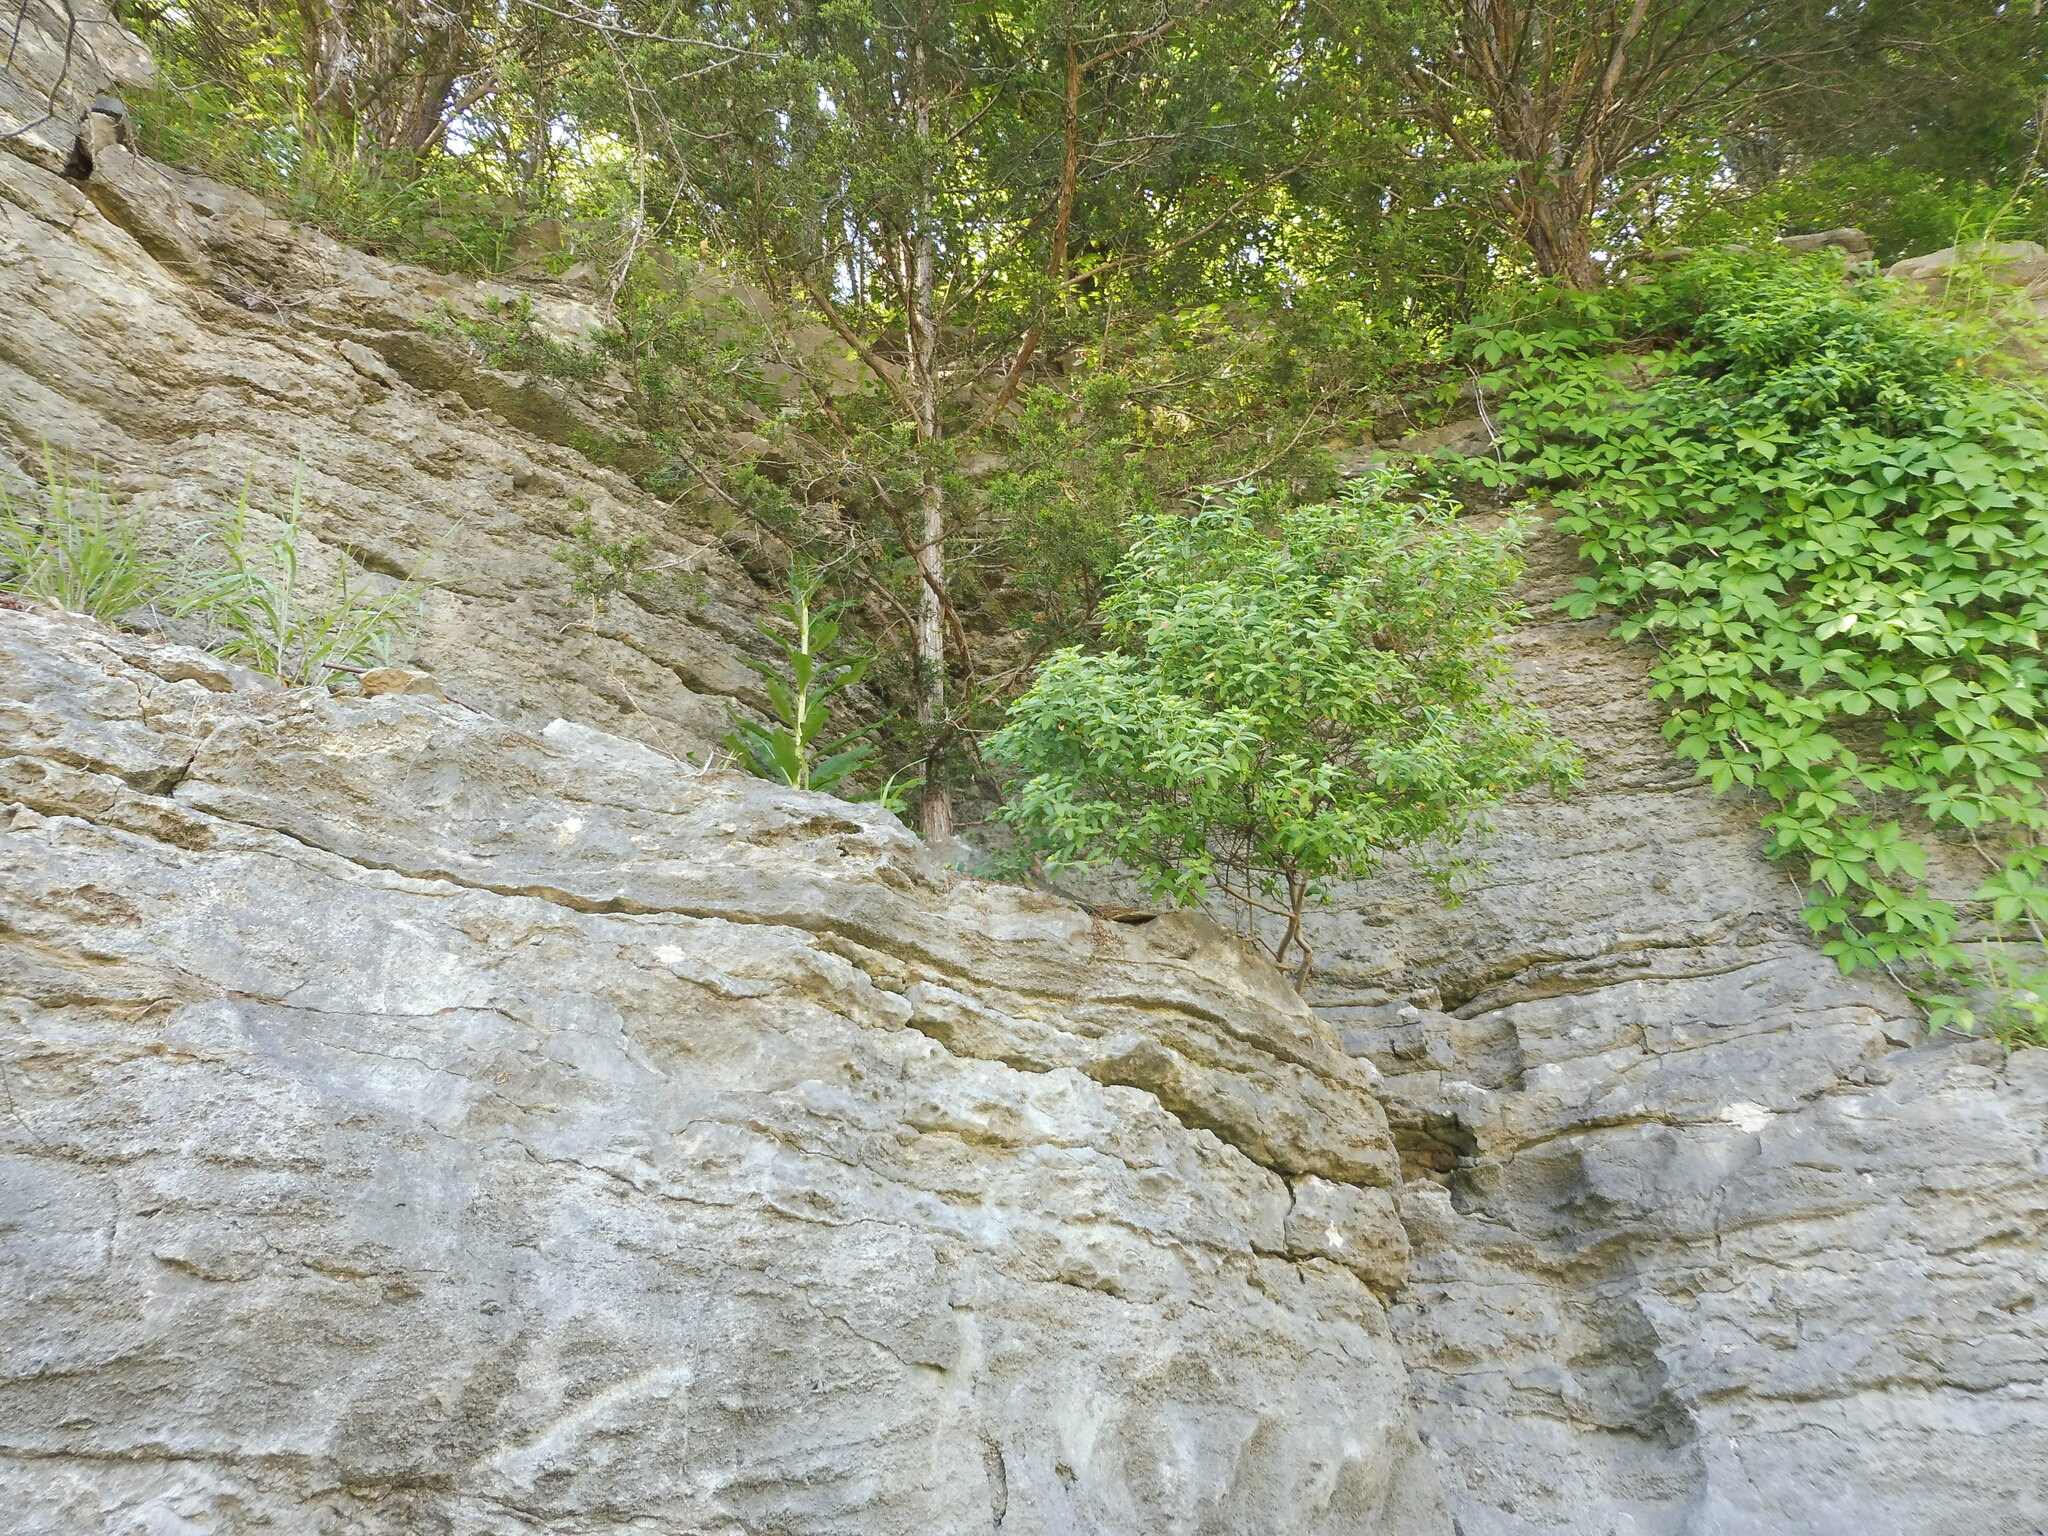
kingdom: Plantae
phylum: Tracheophyta
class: Magnoliopsida
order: Caryophyllales
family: Polygonaceae
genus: Eriogonum
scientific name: Eriogonum longifolium
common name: Longleaf wild buckwheat
